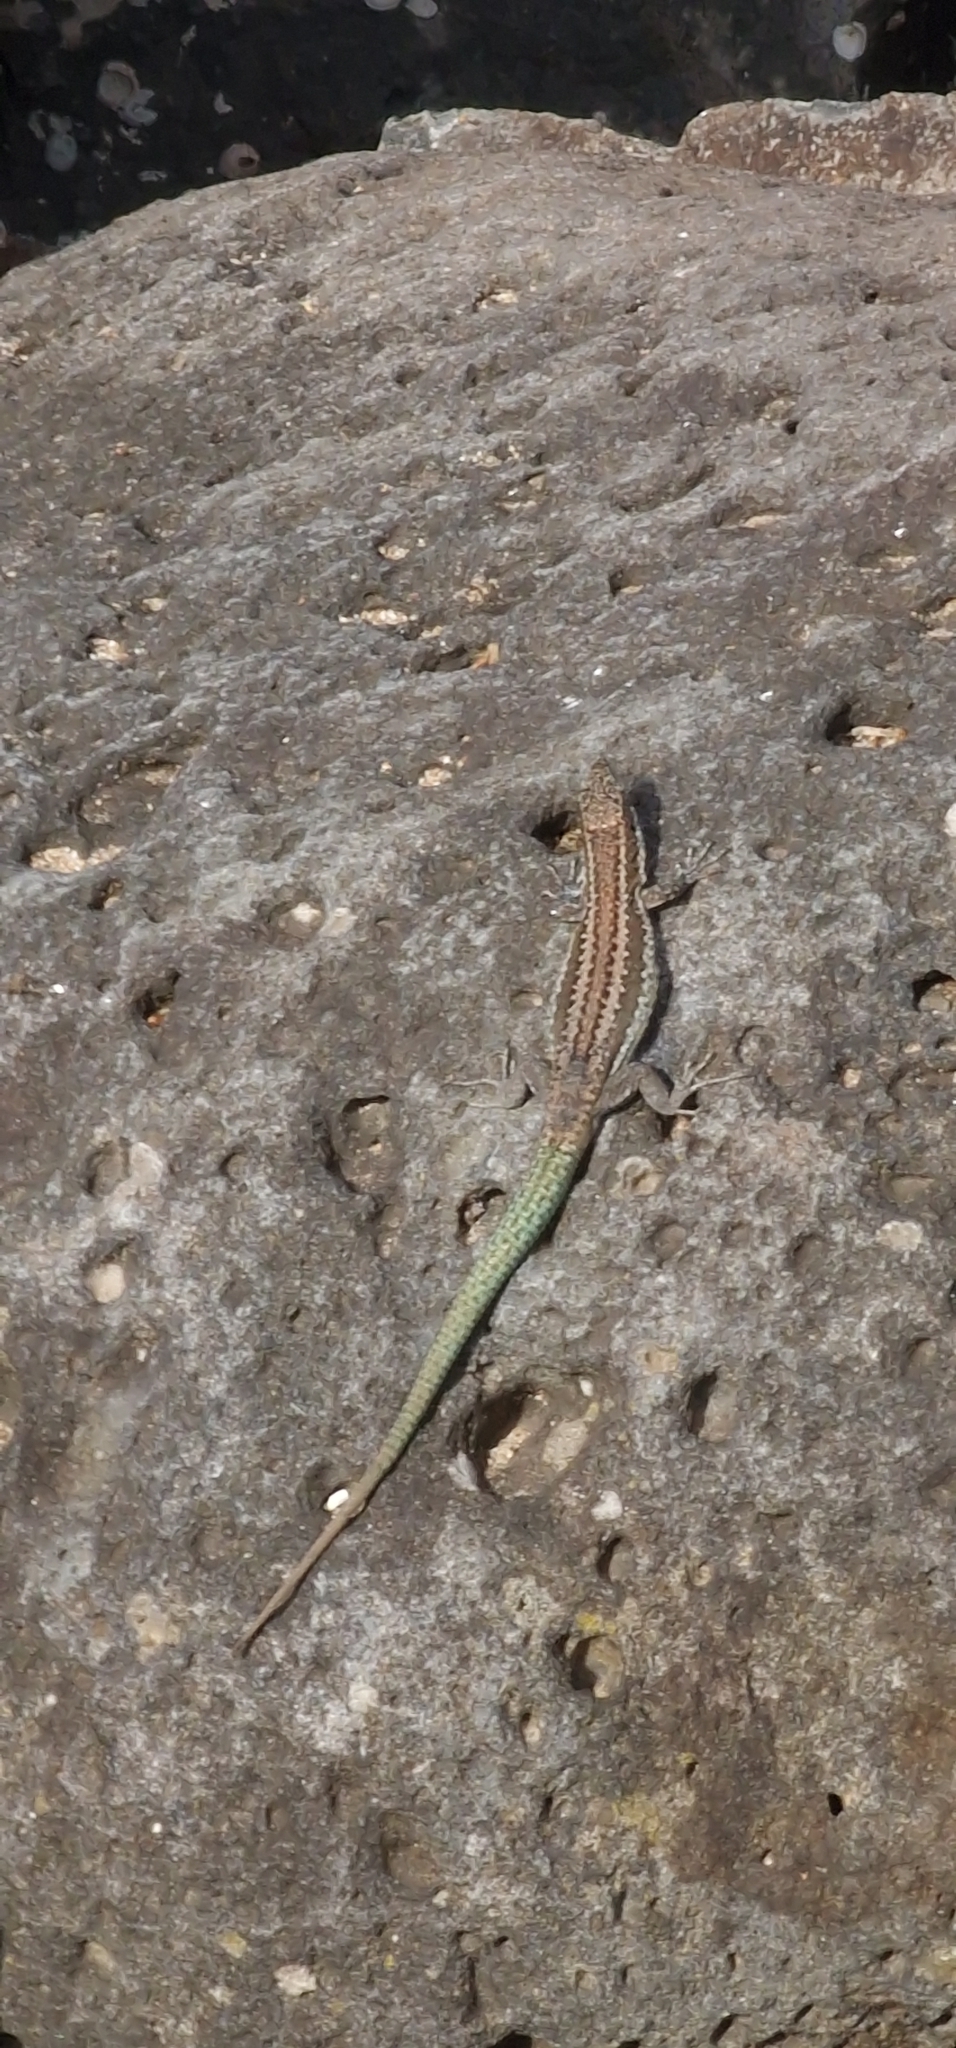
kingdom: Animalia
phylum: Chordata
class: Squamata
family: Lacertidae
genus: Teira
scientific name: Teira dugesii
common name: Madeira lizard
